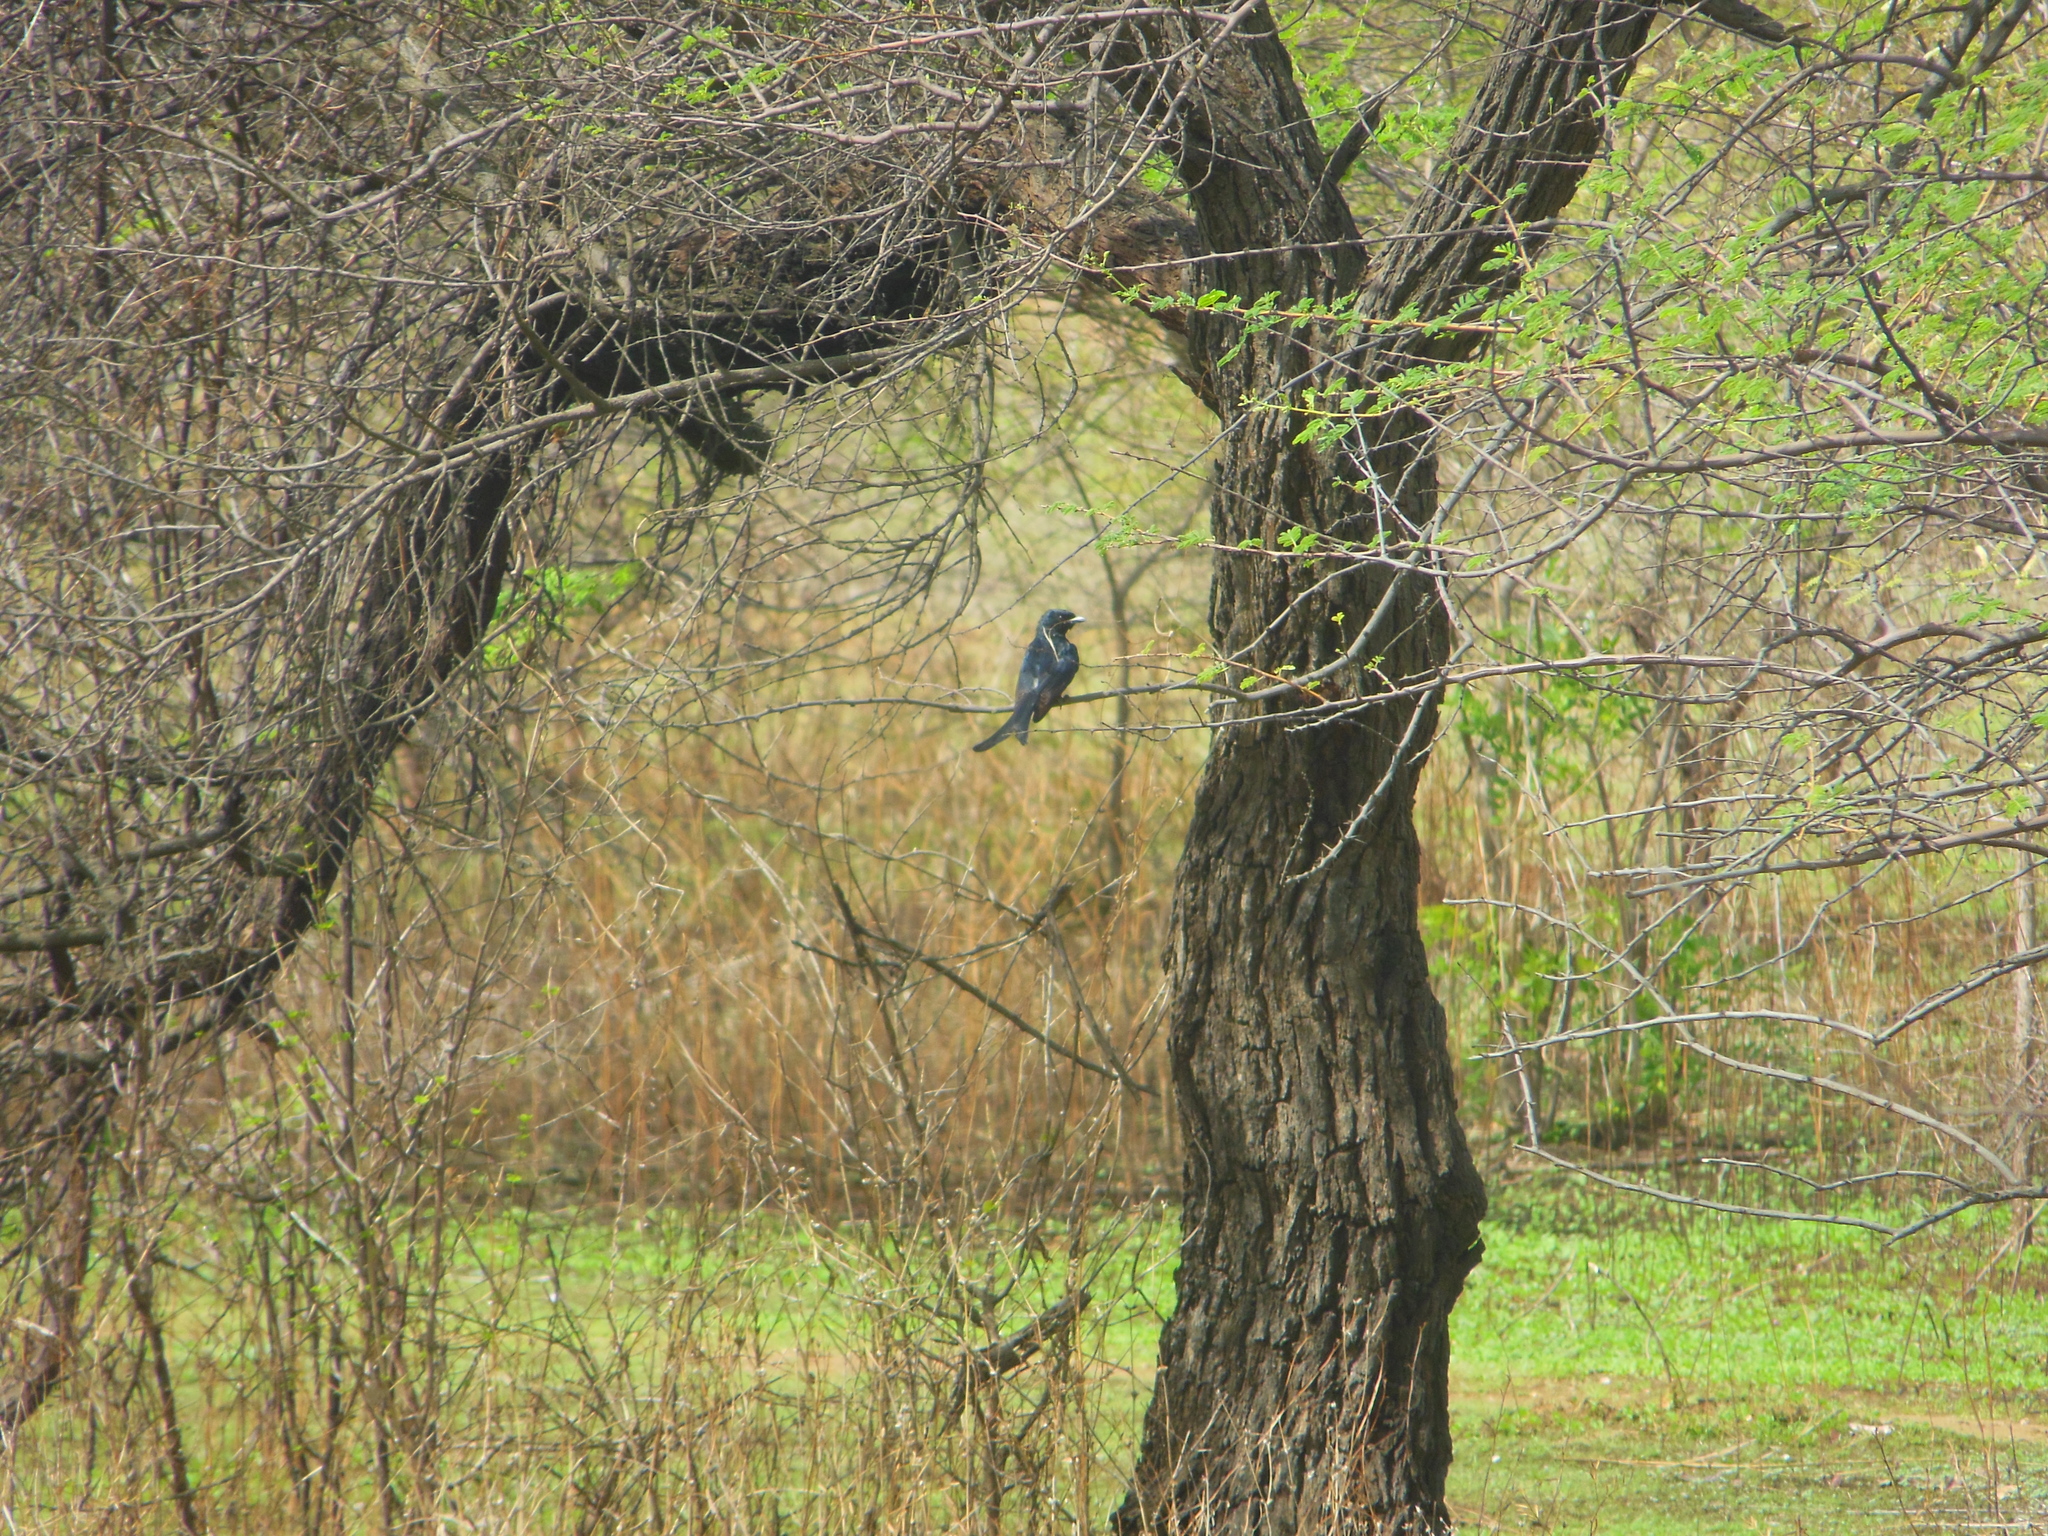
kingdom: Animalia
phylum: Chordata
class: Aves
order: Passeriformes
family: Dicruridae
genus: Dicrurus
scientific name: Dicrurus macrocercus
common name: Black drongo
